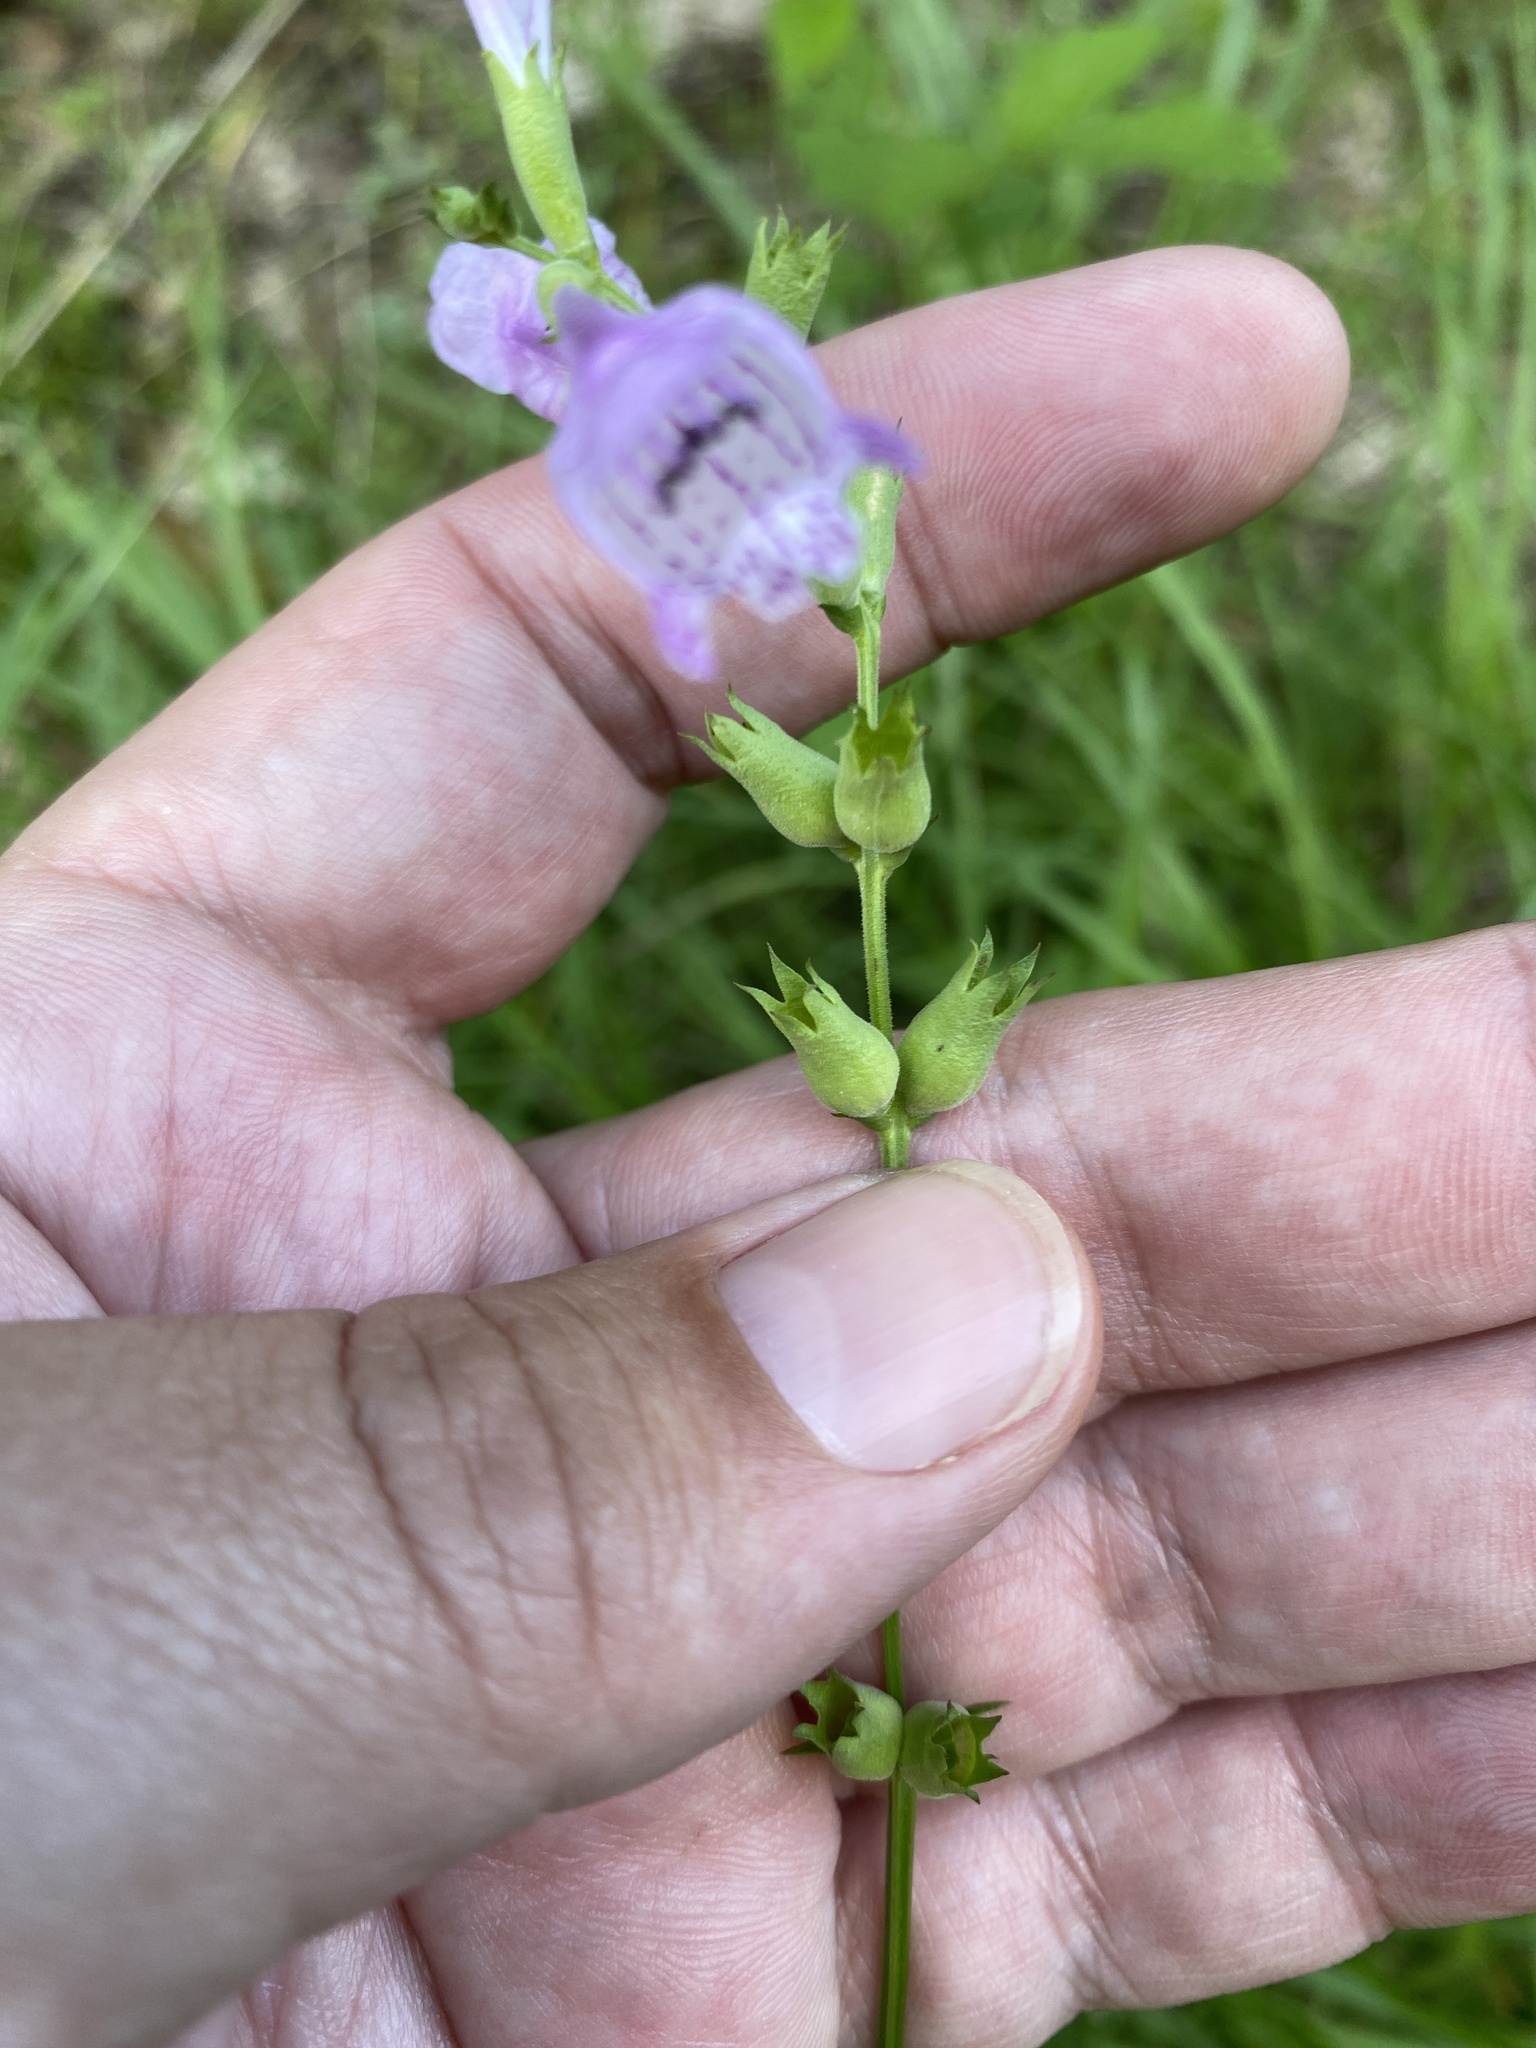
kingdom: Plantae
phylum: Tracheophyta
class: Magnoliopsida
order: Lamiales
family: Lamiaceae
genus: Physostegia
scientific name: Physostegia angustifolia
